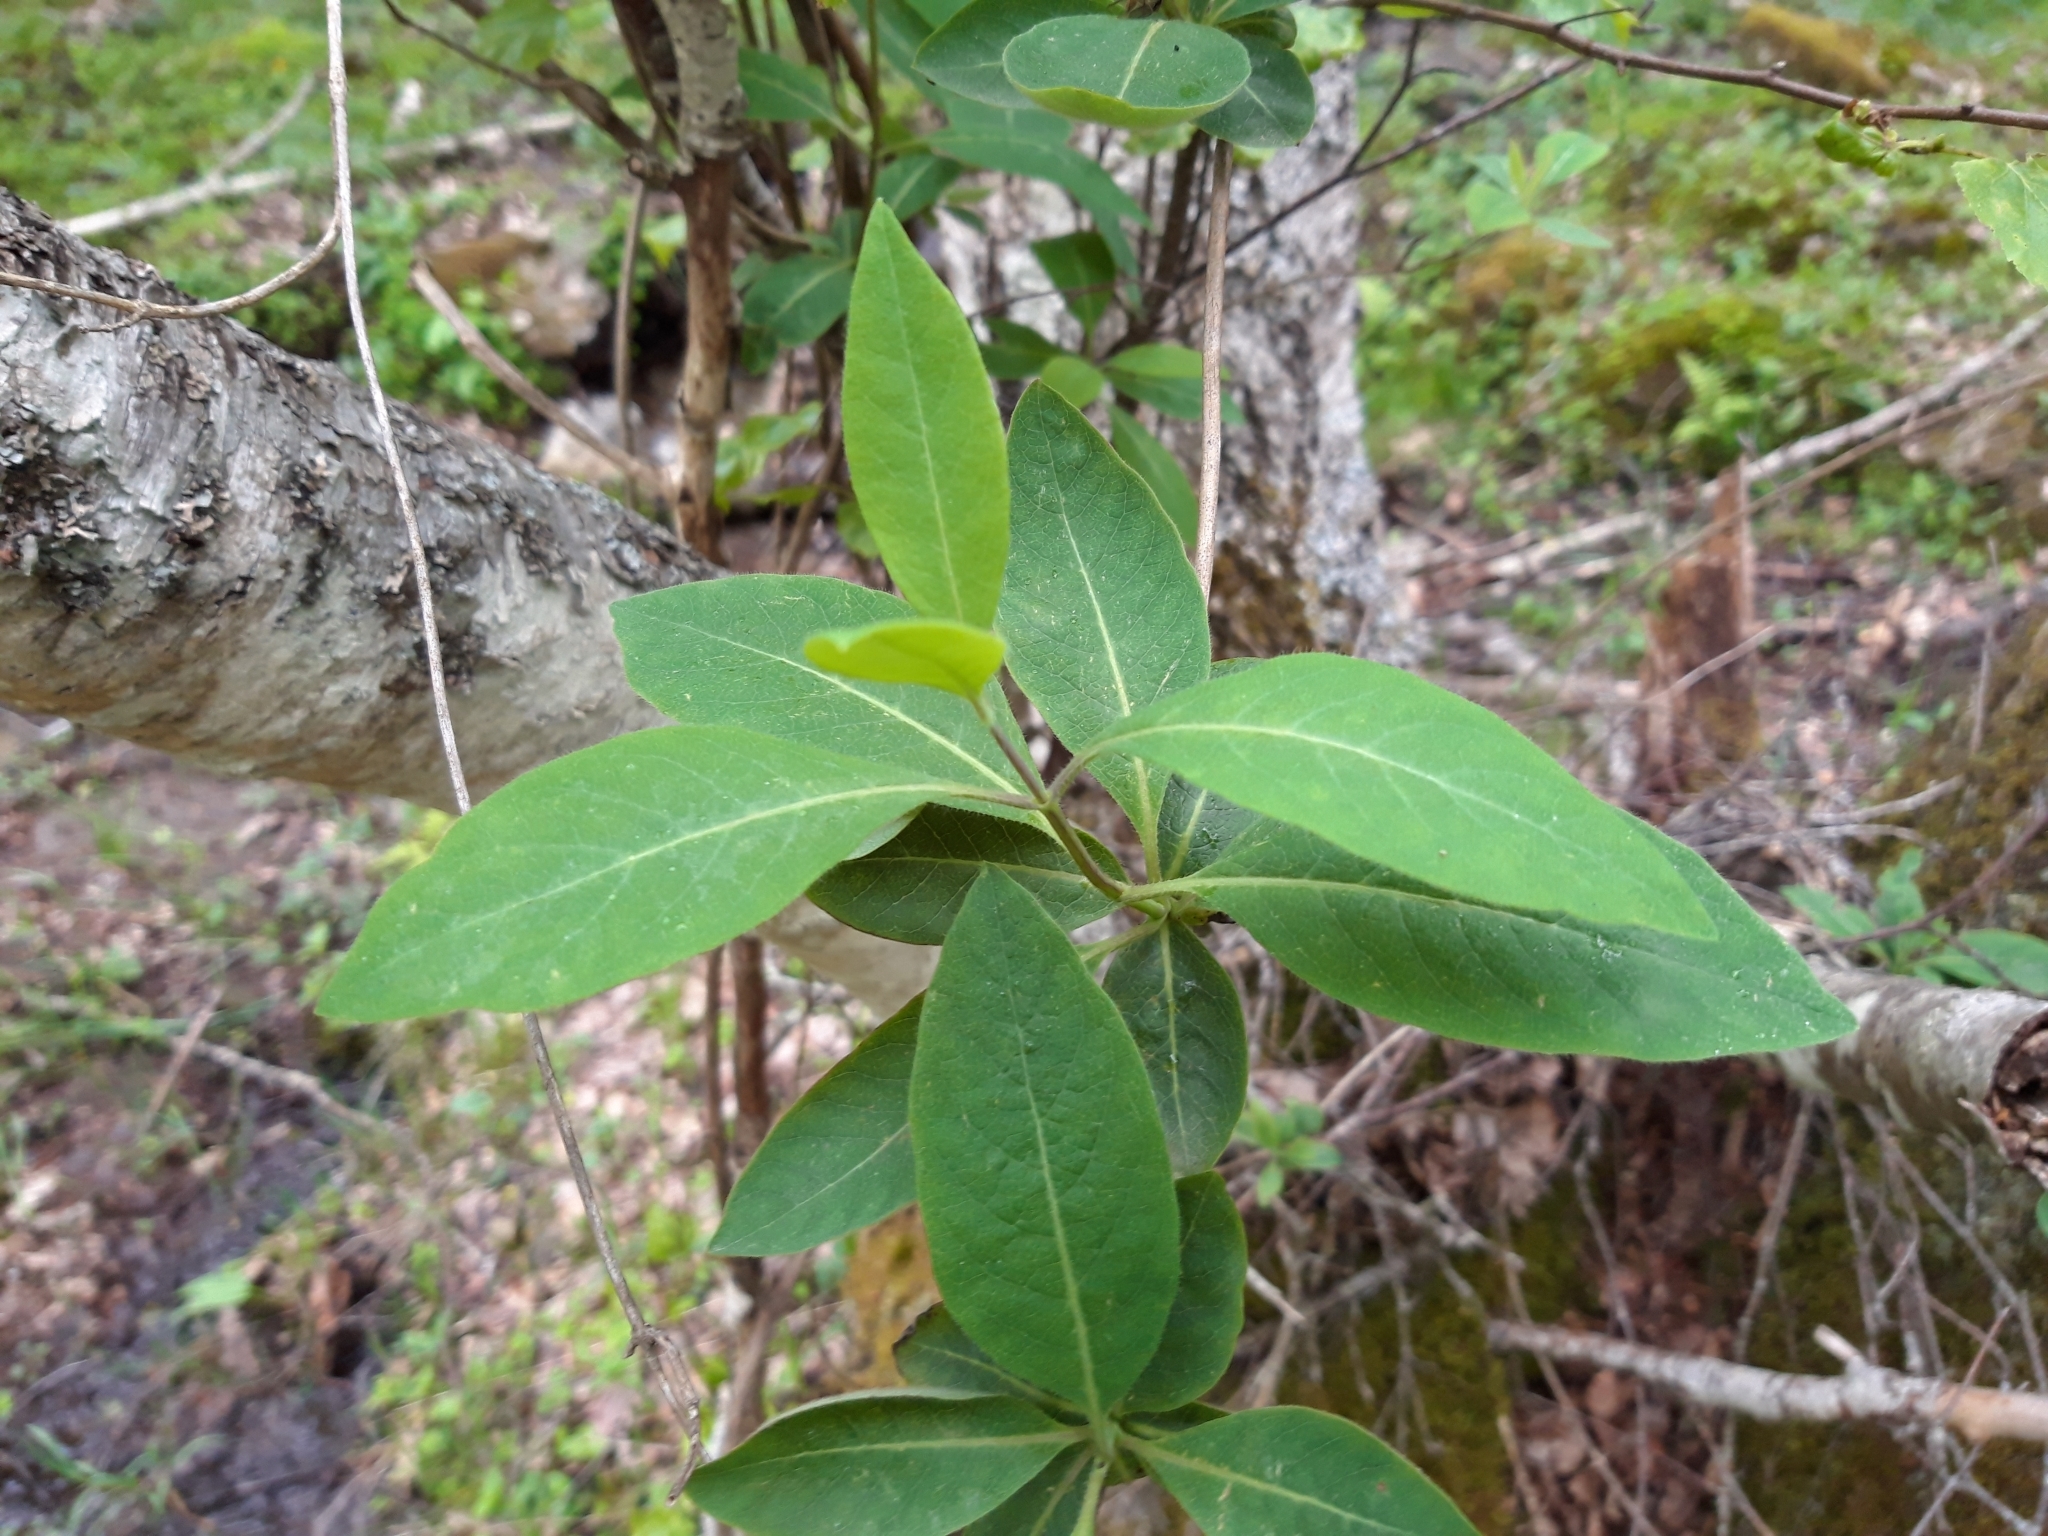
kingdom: Plantae
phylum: Tracheophyta
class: Magnoliopsida
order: Dipsacales
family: Caprifoliaceae
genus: Lonicera
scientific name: Lonicera periclymenum
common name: European honeysuckle
